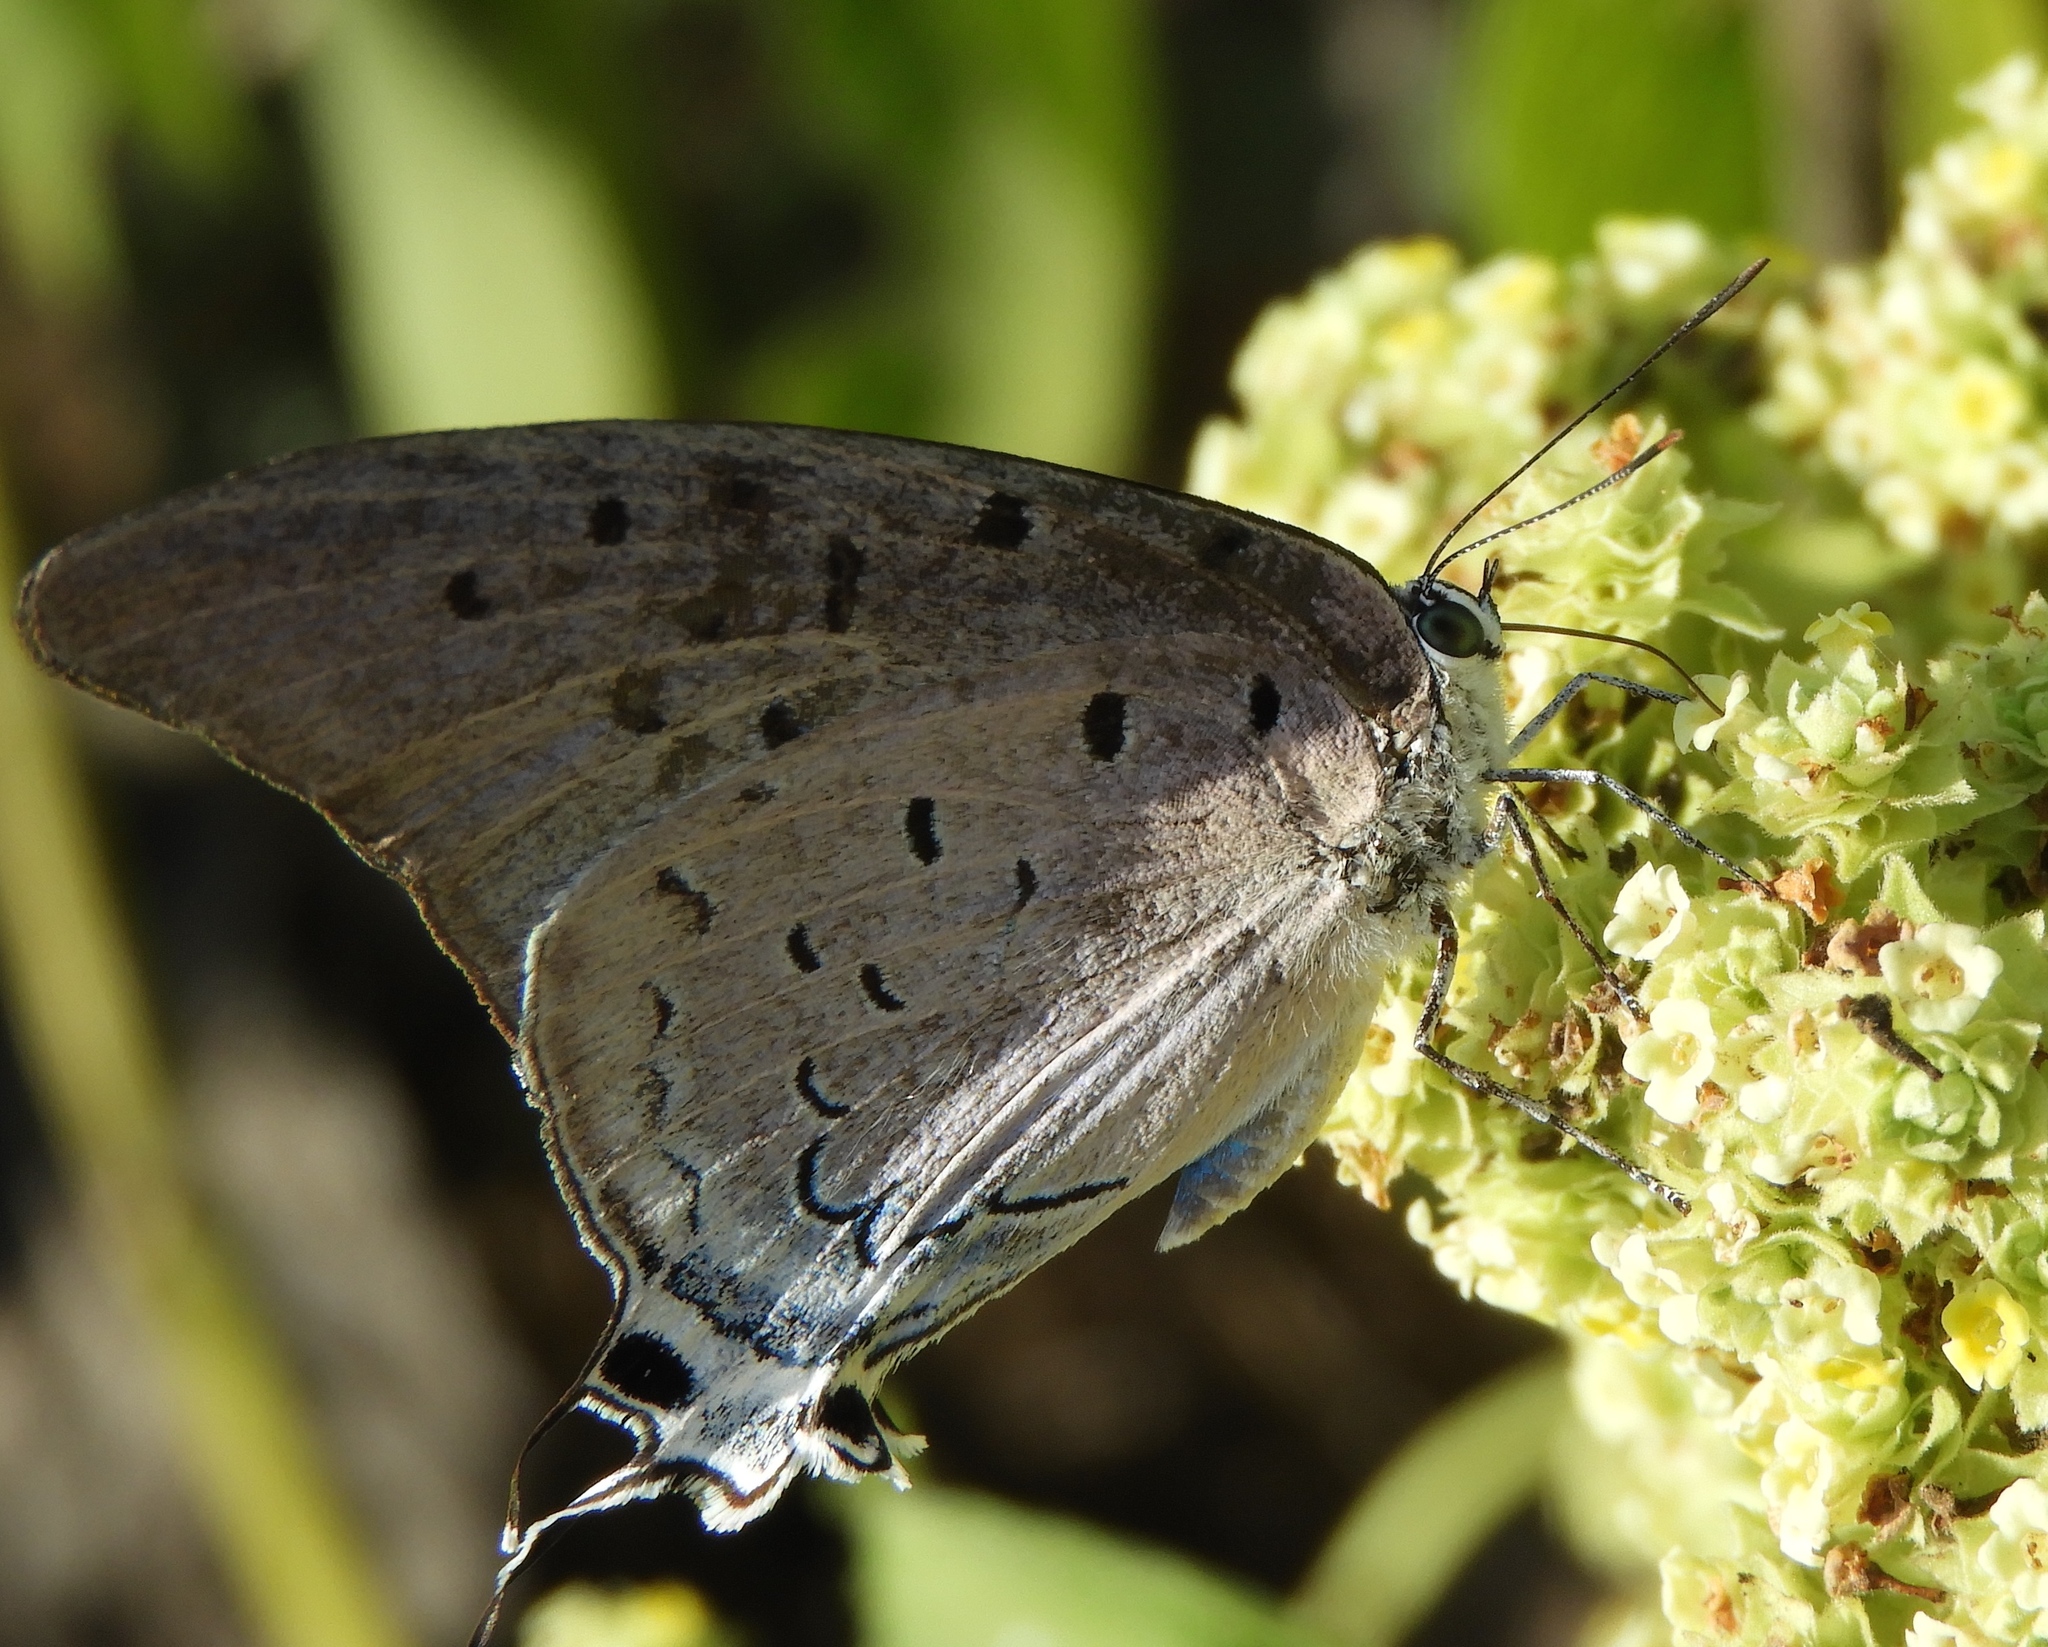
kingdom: Animalia
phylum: Arthropoda
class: Insecta
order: Lepidoptera
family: Lycaenidae
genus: Pseudolycaena
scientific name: Pseudolycaena damo
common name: Sky-blue hairstreak
